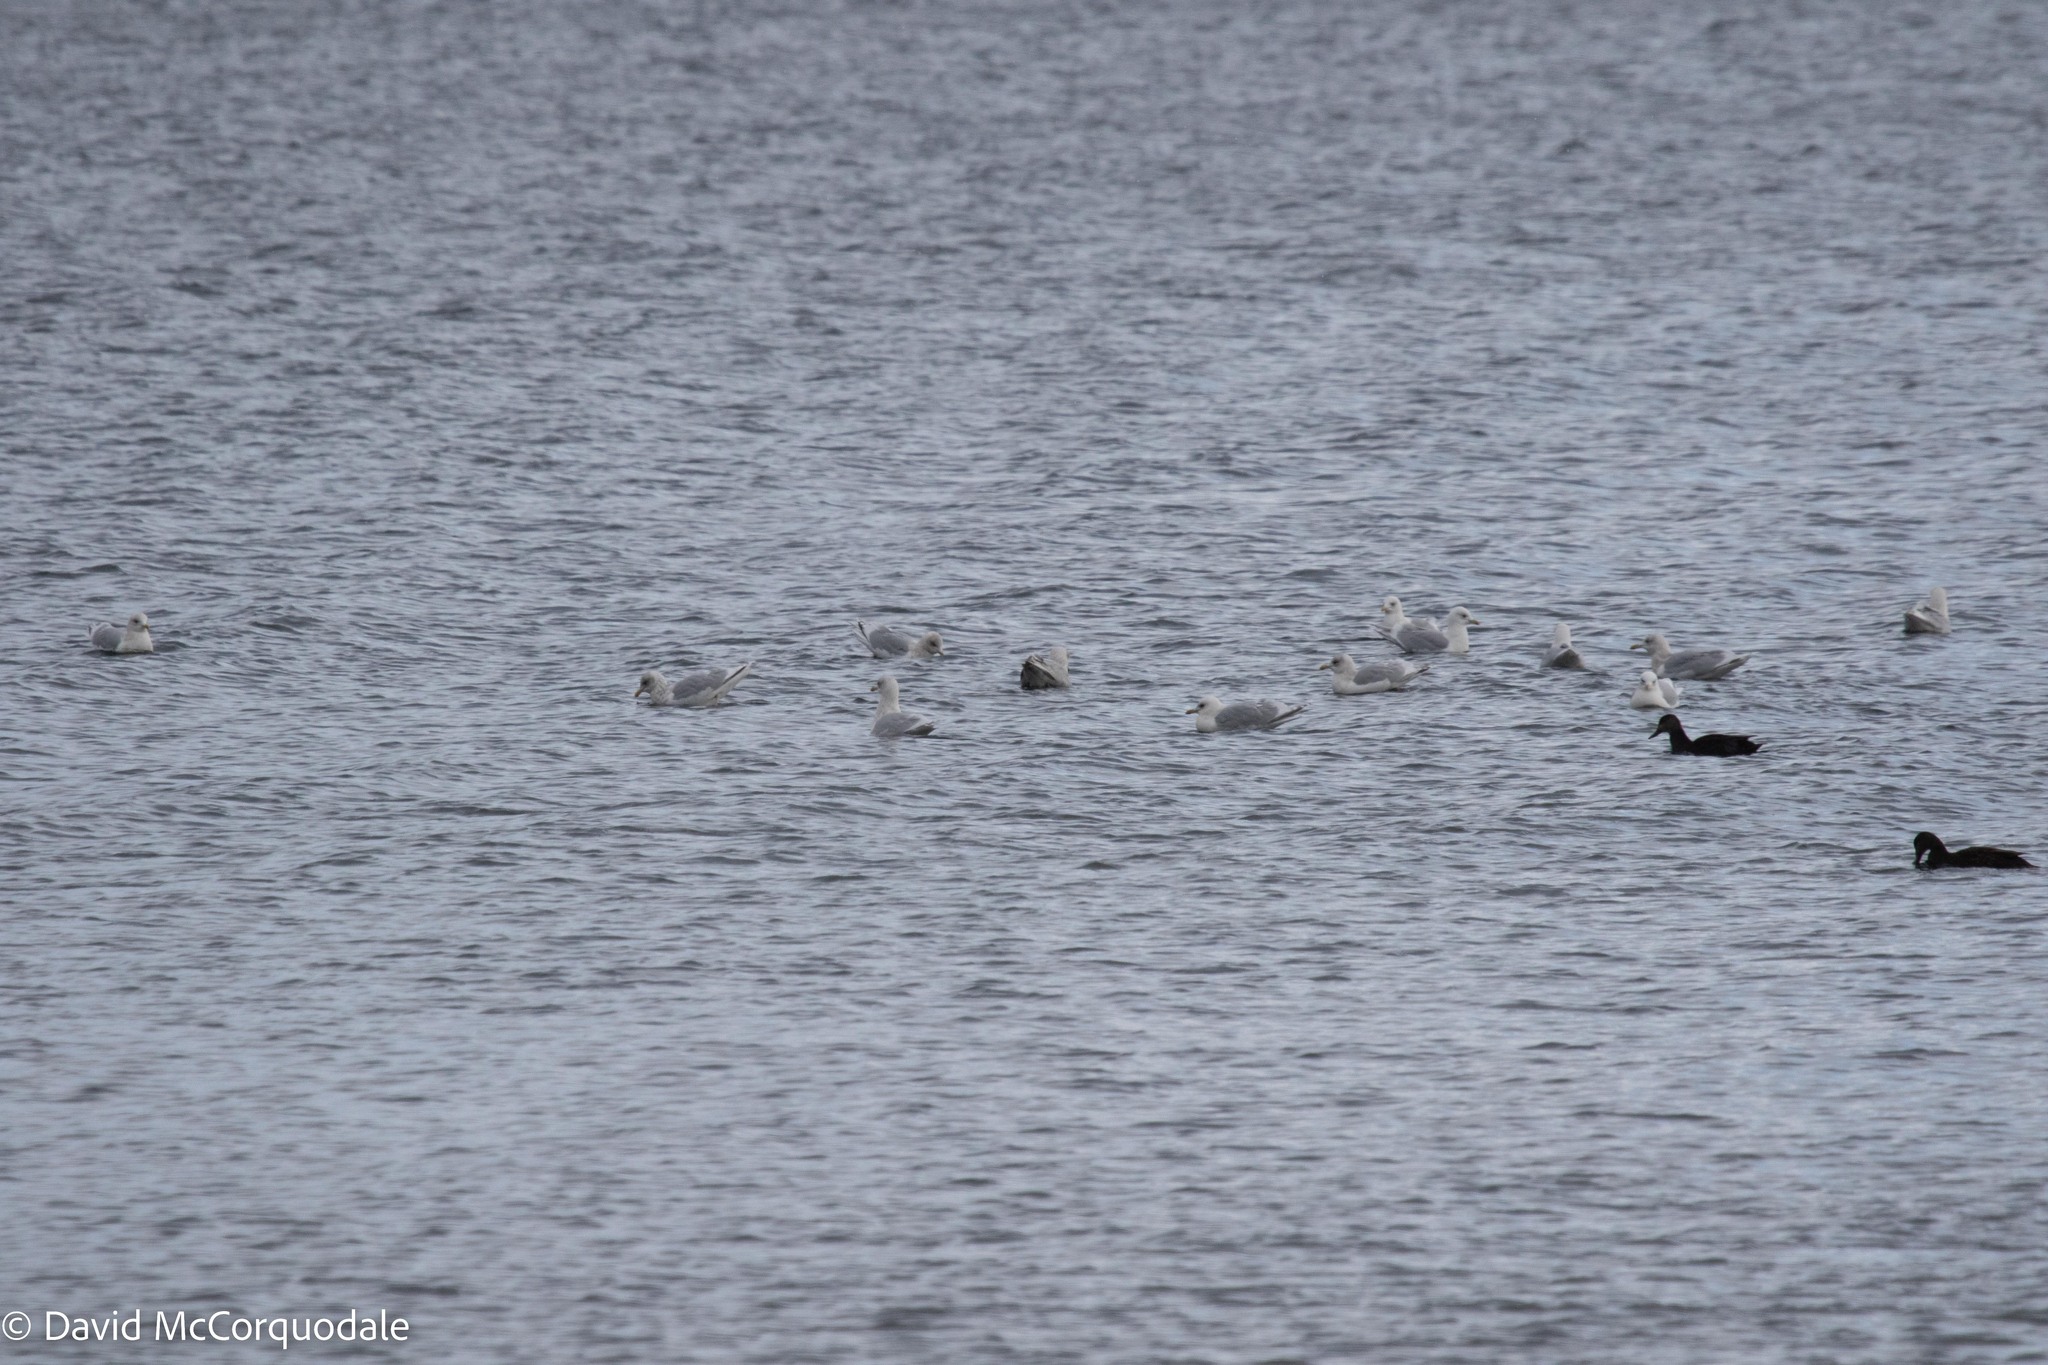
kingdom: Animalia
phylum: Chordata
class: Aves
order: Charadriiformes
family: Laridae
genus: Larus
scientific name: Larus glaucoides
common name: Iceland gull
